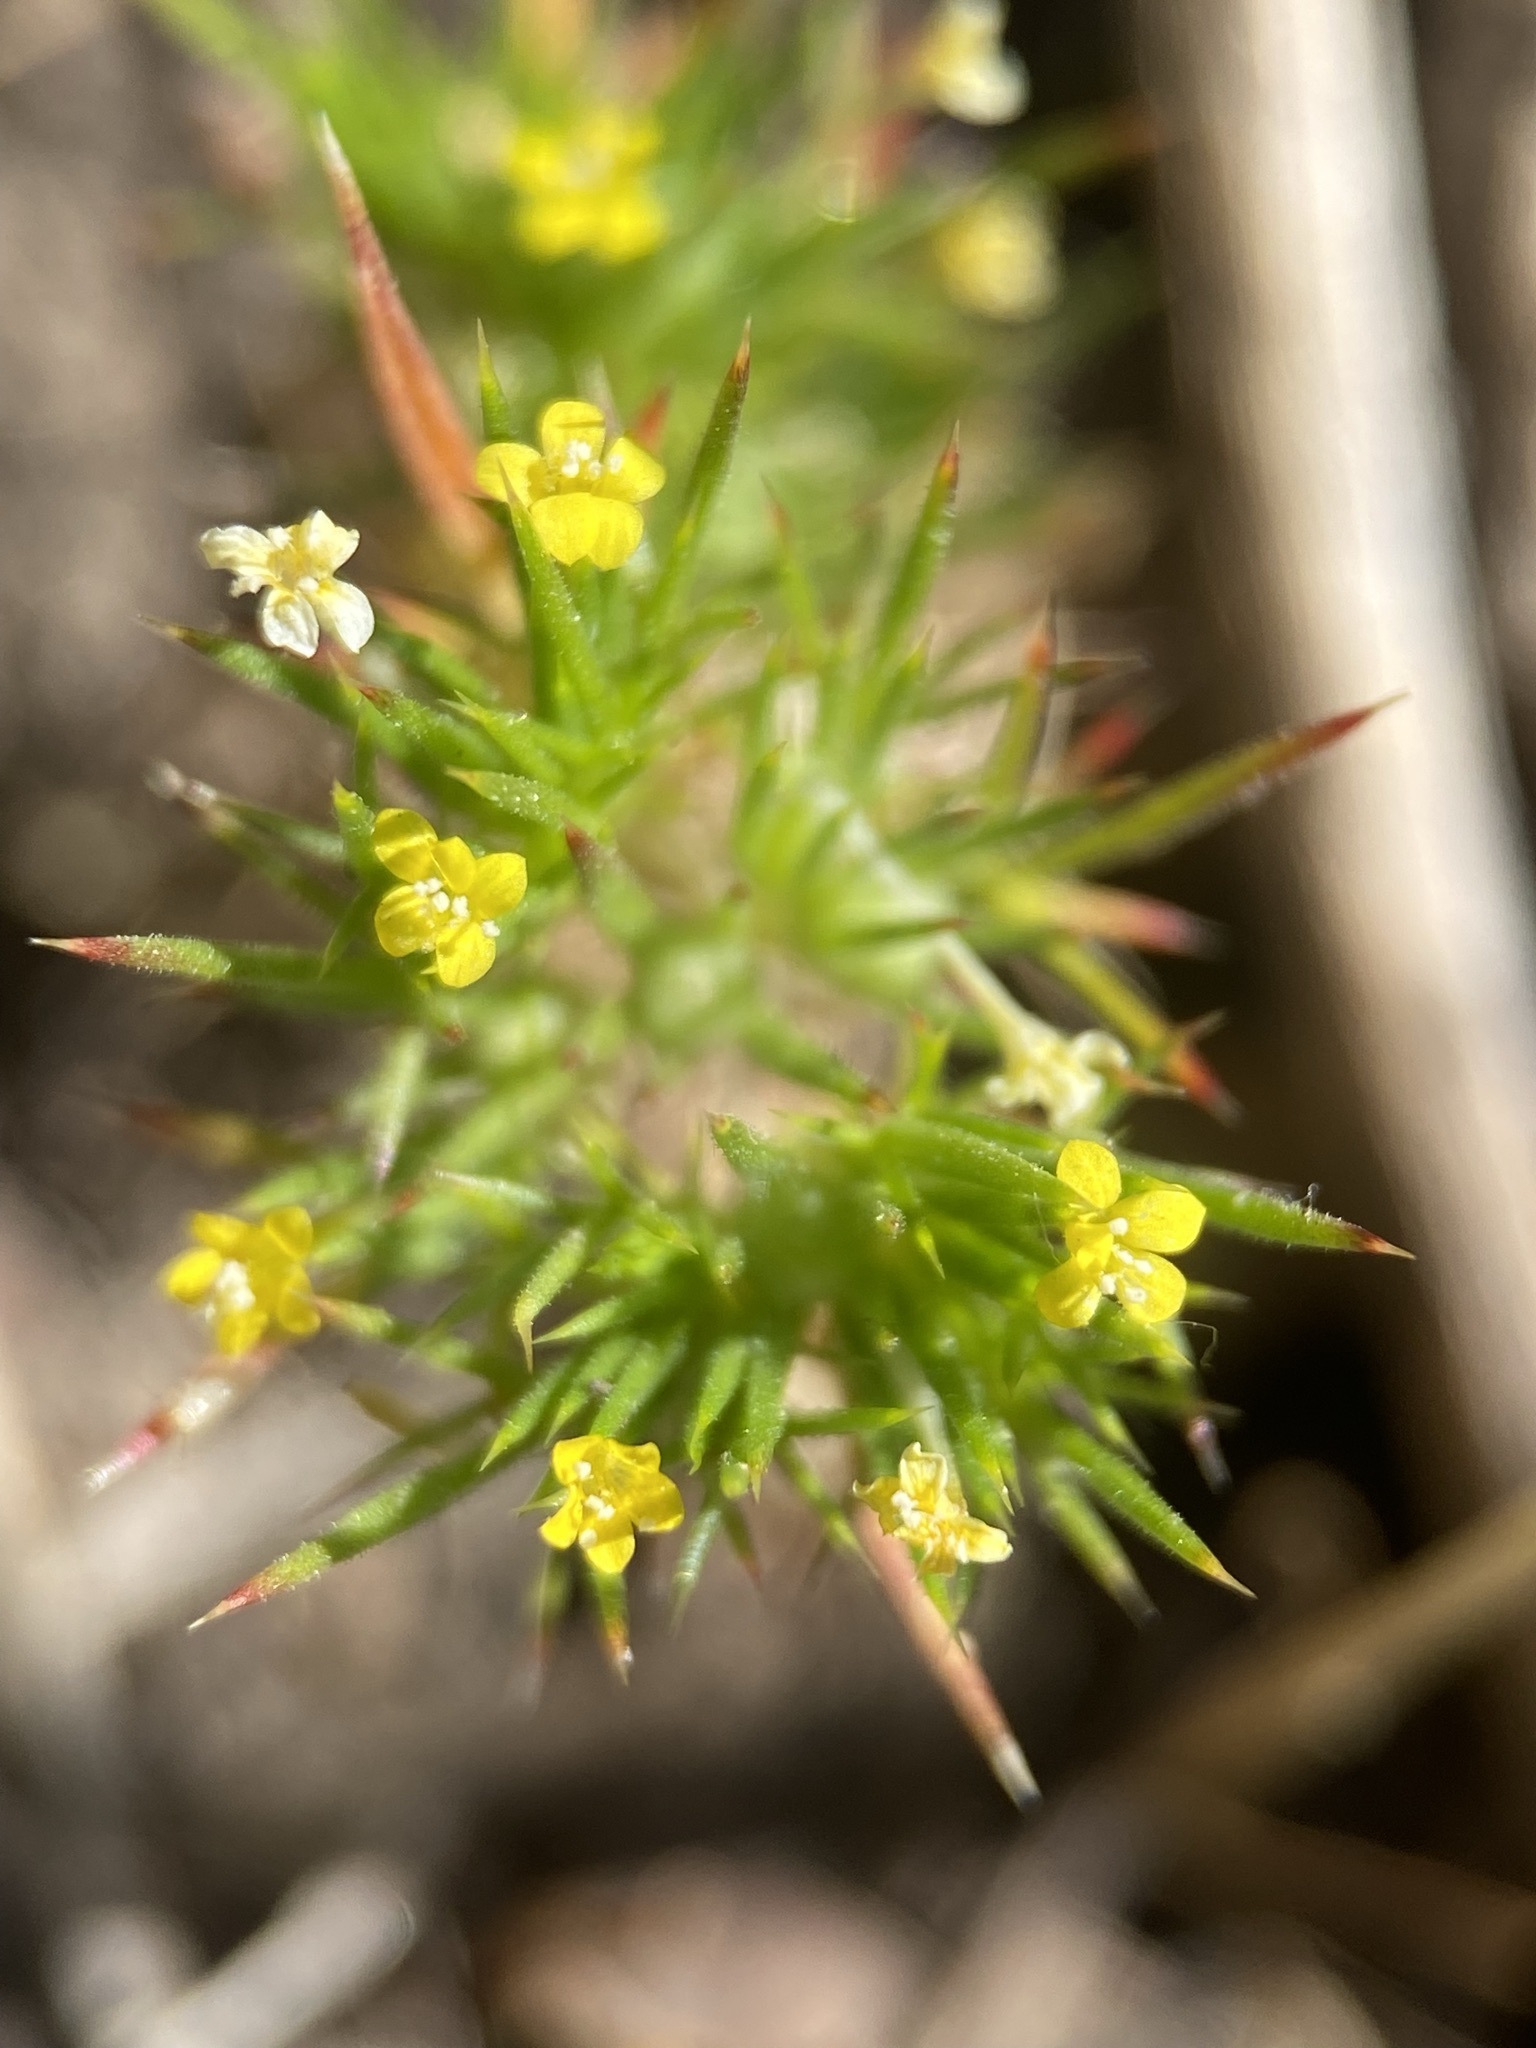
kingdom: Plantae
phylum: Tracheophyta
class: Magnoliopsida
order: Ericales
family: Polemoniaceae
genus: Navarretia
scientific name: Navarretia breweri
